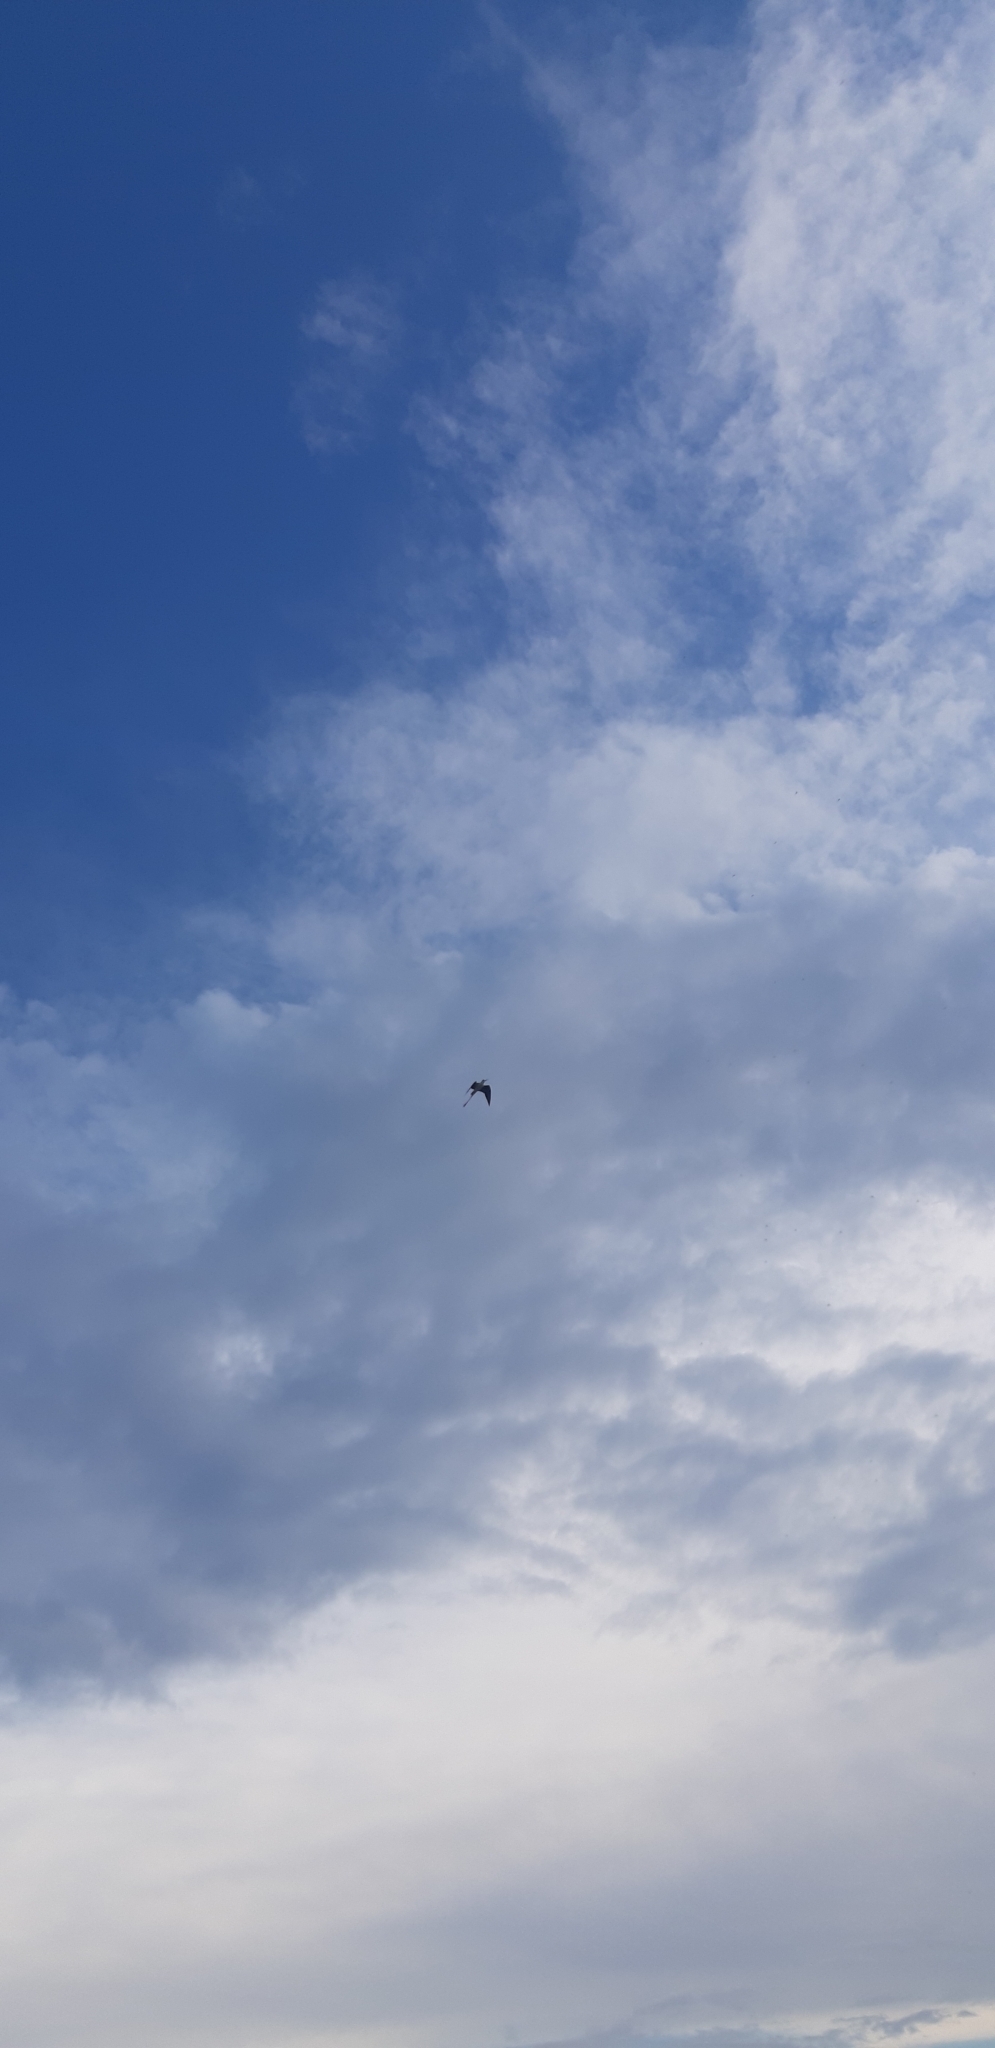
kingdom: Animalia
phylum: Chordata
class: Aves
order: Charadriiformes
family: Recurvirostridae
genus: Himantopus
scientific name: Himantopus himantopus
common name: Black-winged stilt
